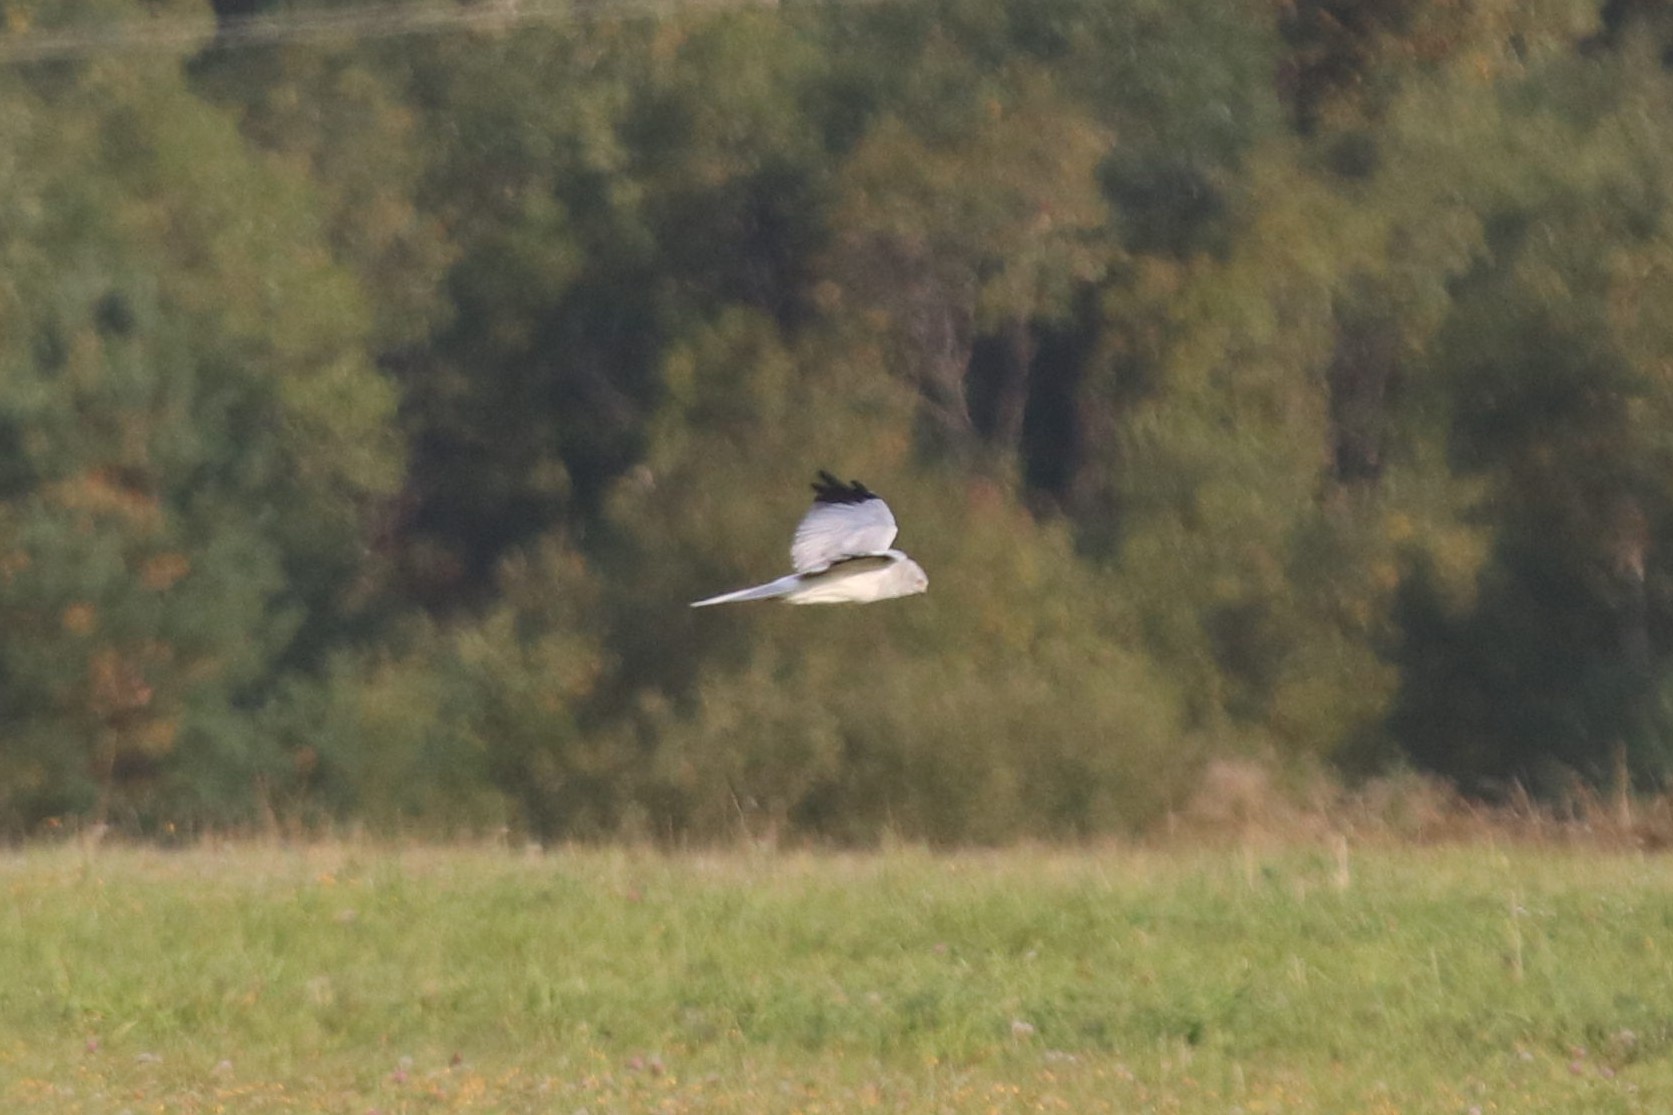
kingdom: Animalia
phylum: Chordata
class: Aves
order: Accipitriformes
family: Accipitridae
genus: Circus
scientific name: Circus cyaneus
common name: Hen harrier
